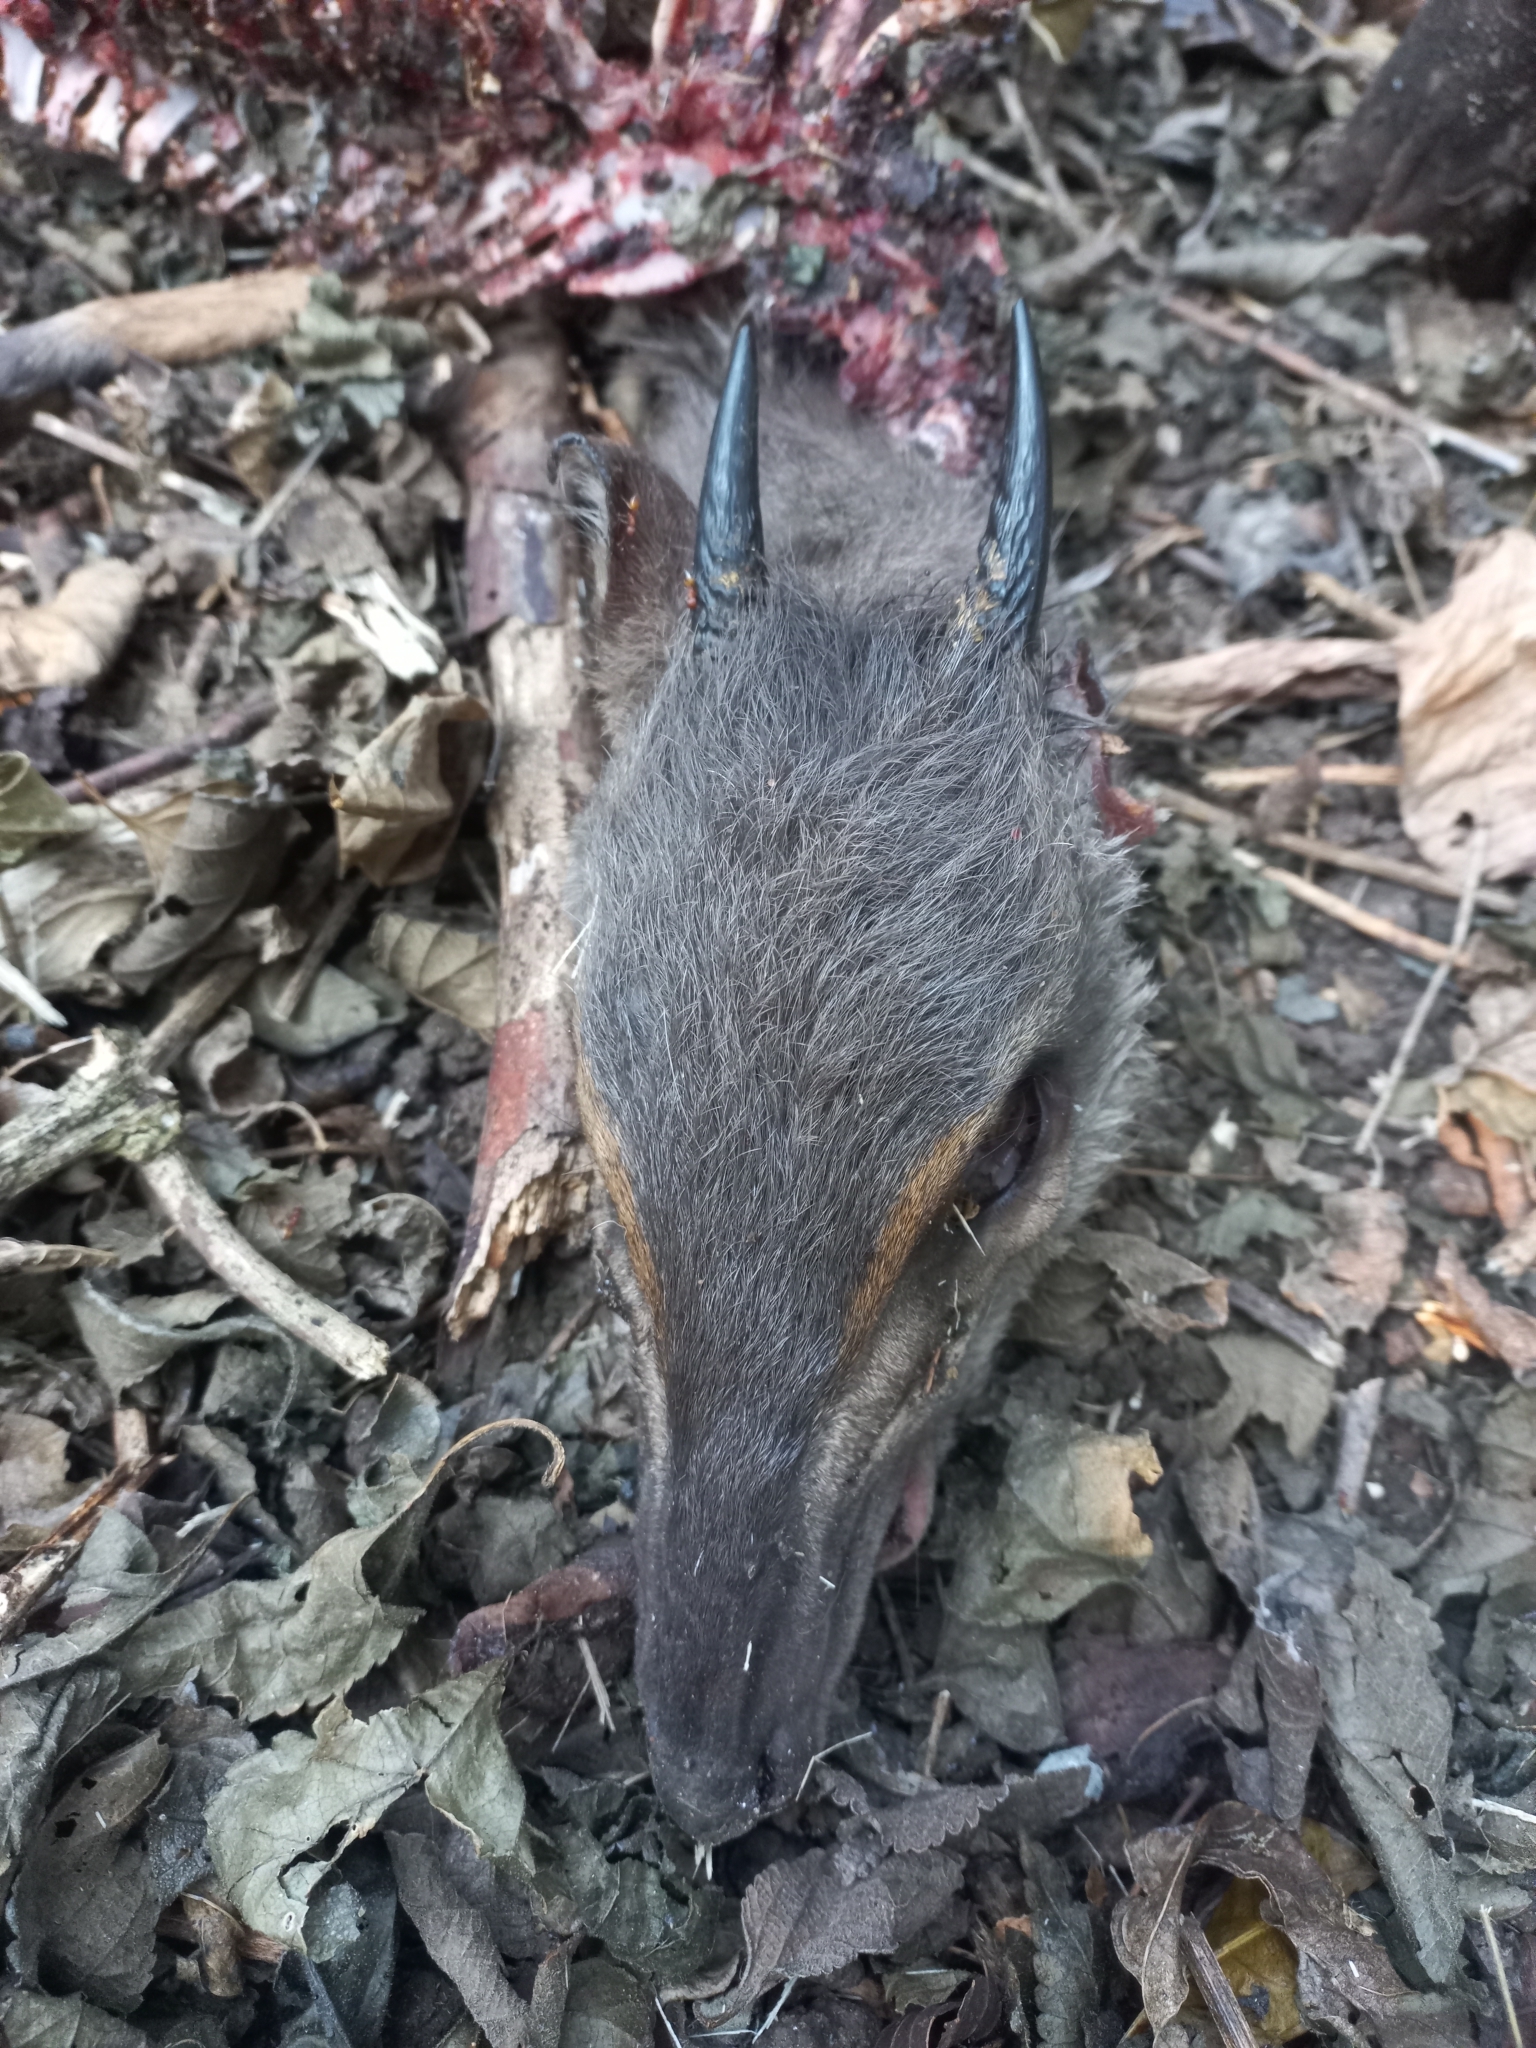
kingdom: Animalia
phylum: Chordata
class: Mammalia
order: Artiodactyla
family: Bovidae
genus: Philantomba
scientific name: Philantomba monticola
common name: Blue duiker
